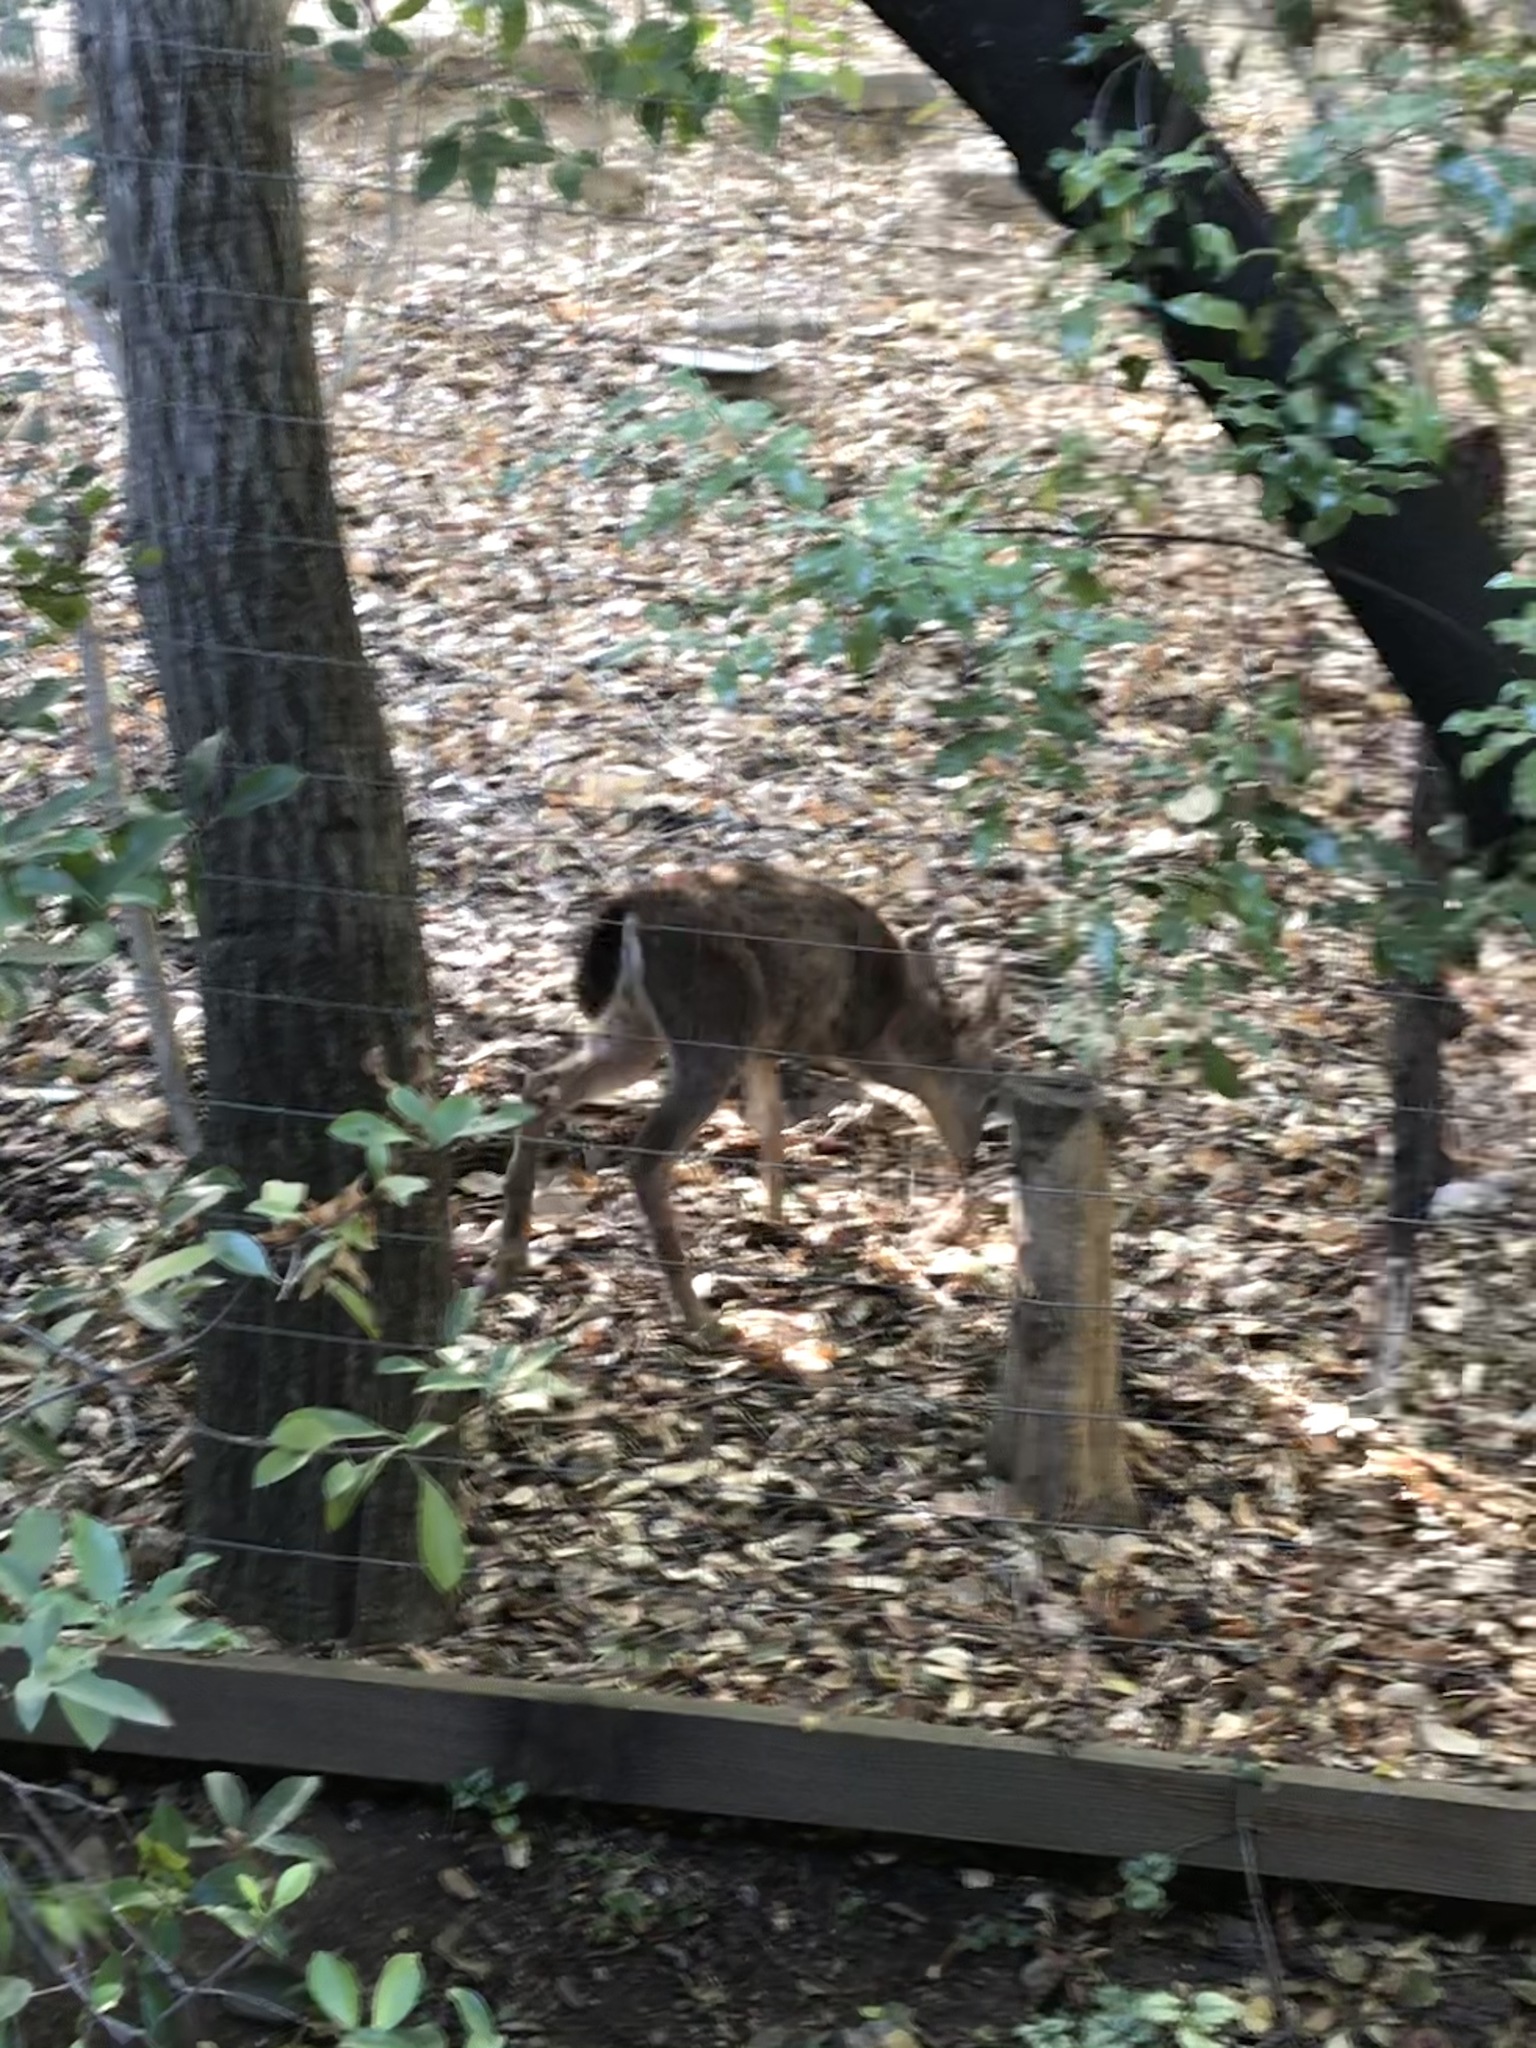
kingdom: Animalia
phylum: Chordata
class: Mammalia
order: Artiodactyla
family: Cervidae
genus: Odocoileus
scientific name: Odocoileus hemionus
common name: Mule deer
